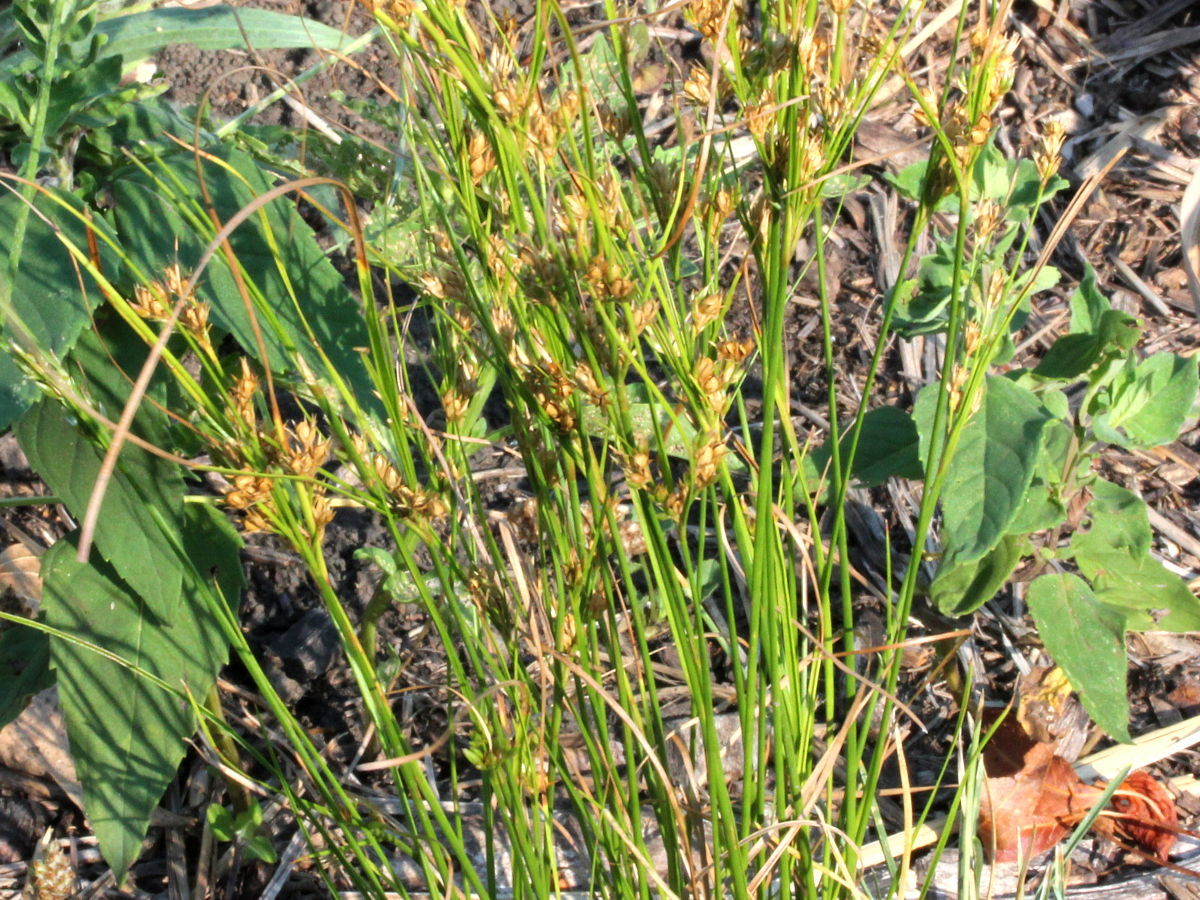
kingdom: Plantae
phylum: Tracheophyta
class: Liliopsida
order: Poales
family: Juncaceae
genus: Juncus
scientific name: Juncus tenuis
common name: Slender rush
